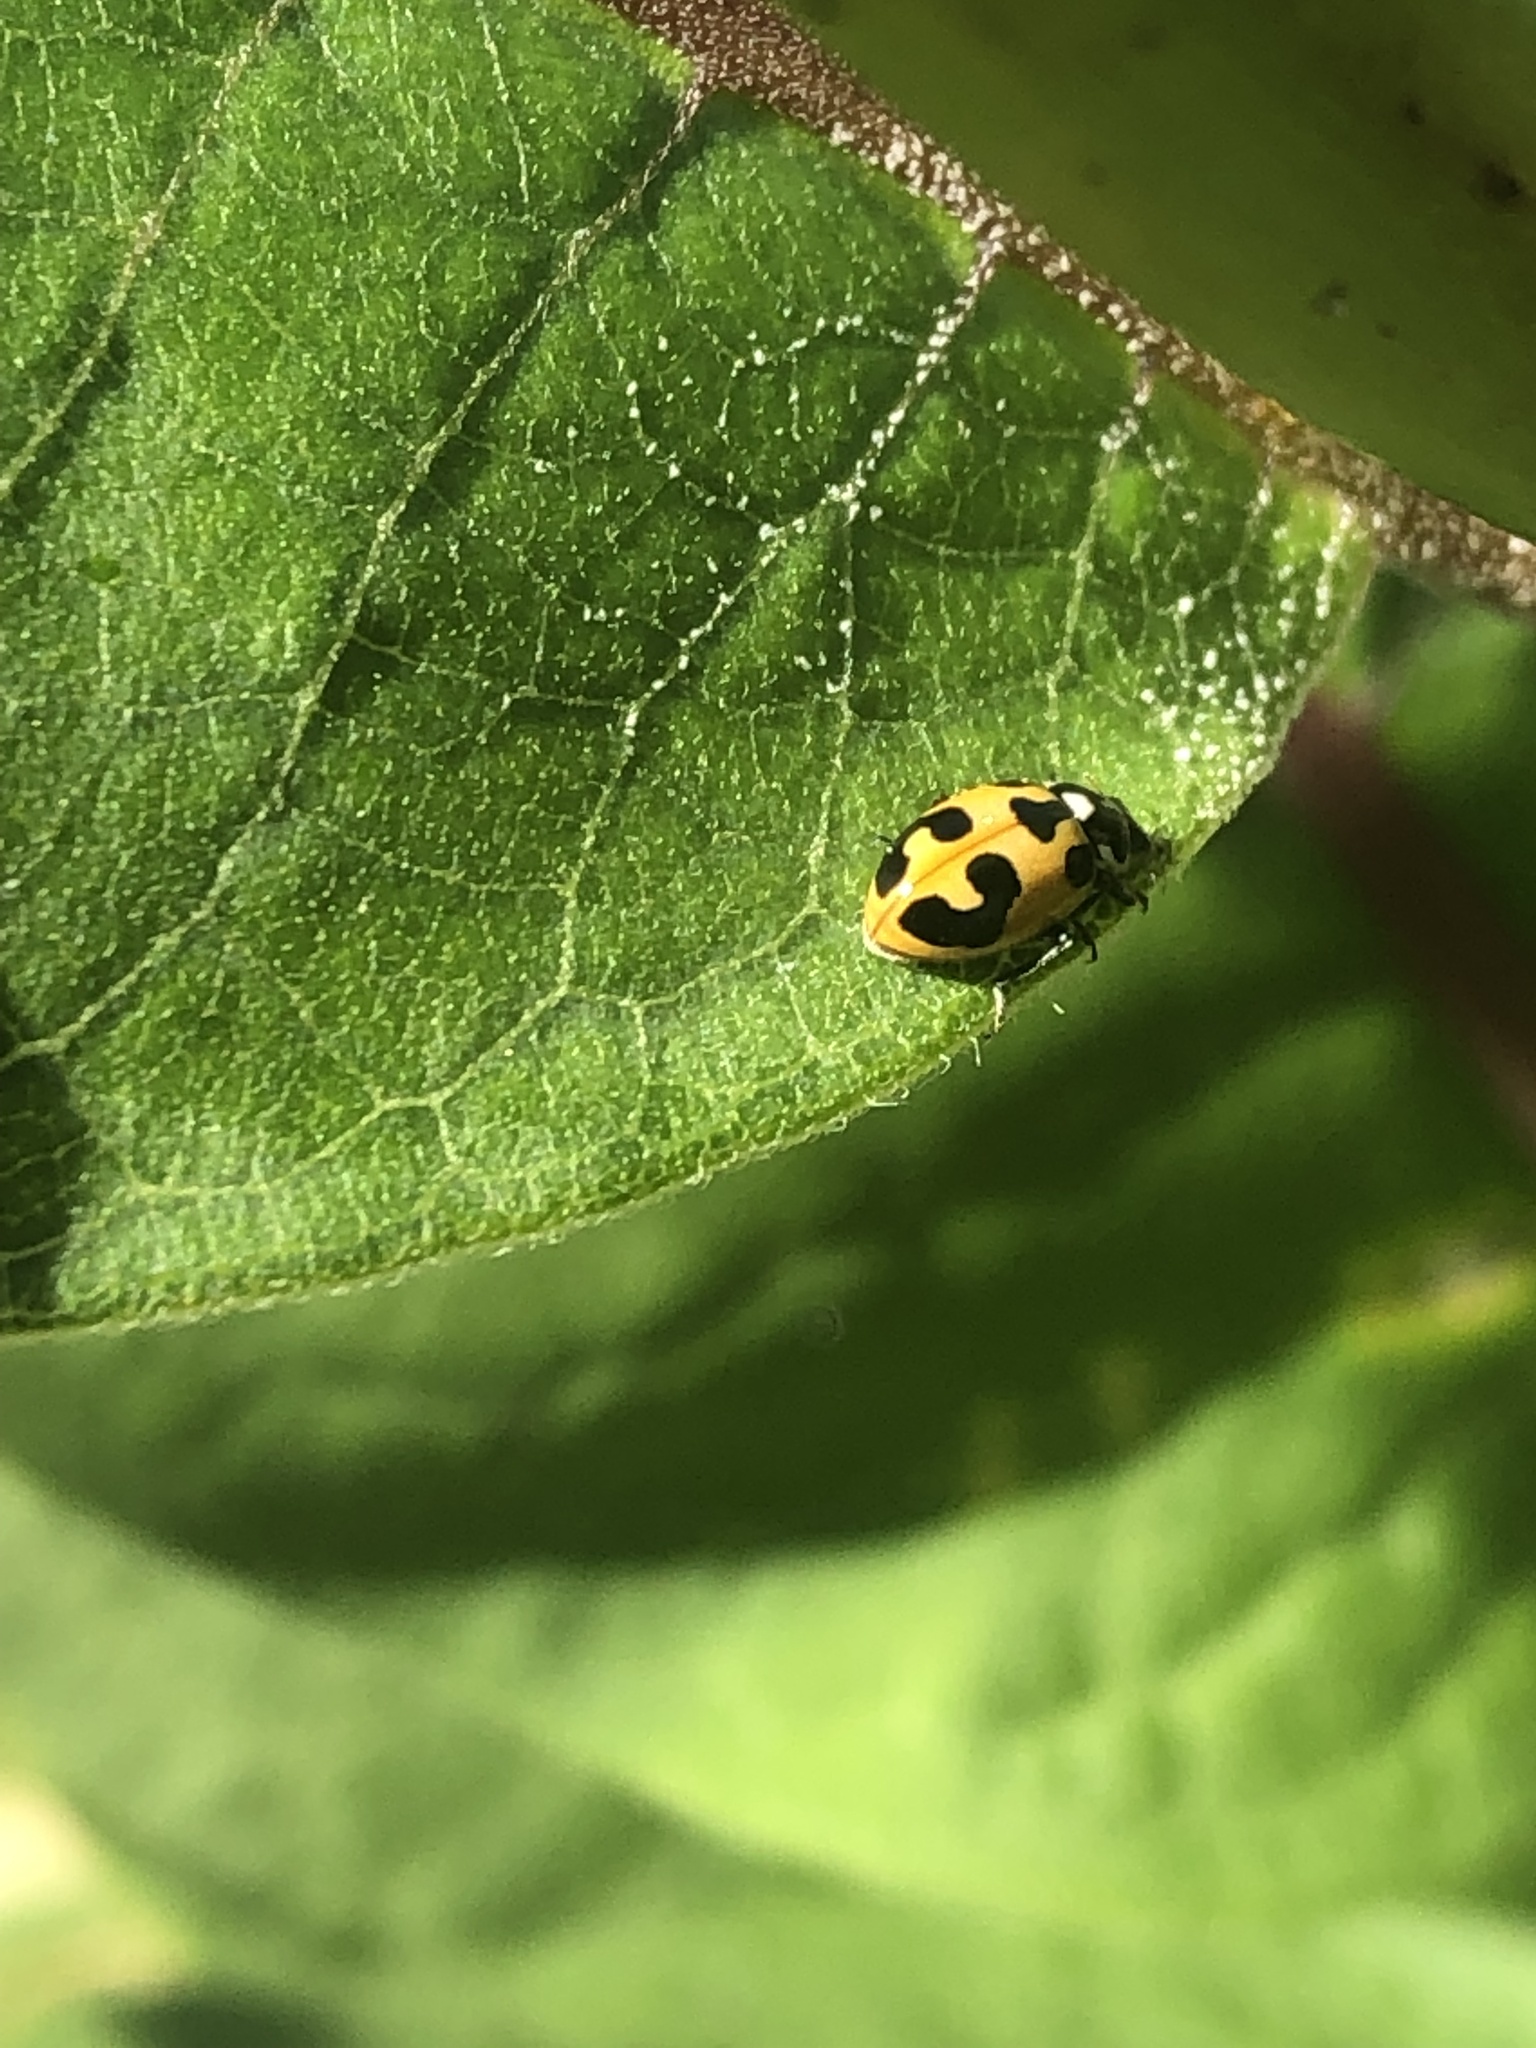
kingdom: Animalia
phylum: Arthropoda
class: Insecta
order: Coleoptera
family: Coccinellidae
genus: Hippodamia
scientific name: Hippodamia parenthesis
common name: Parenthesis lady beetle
